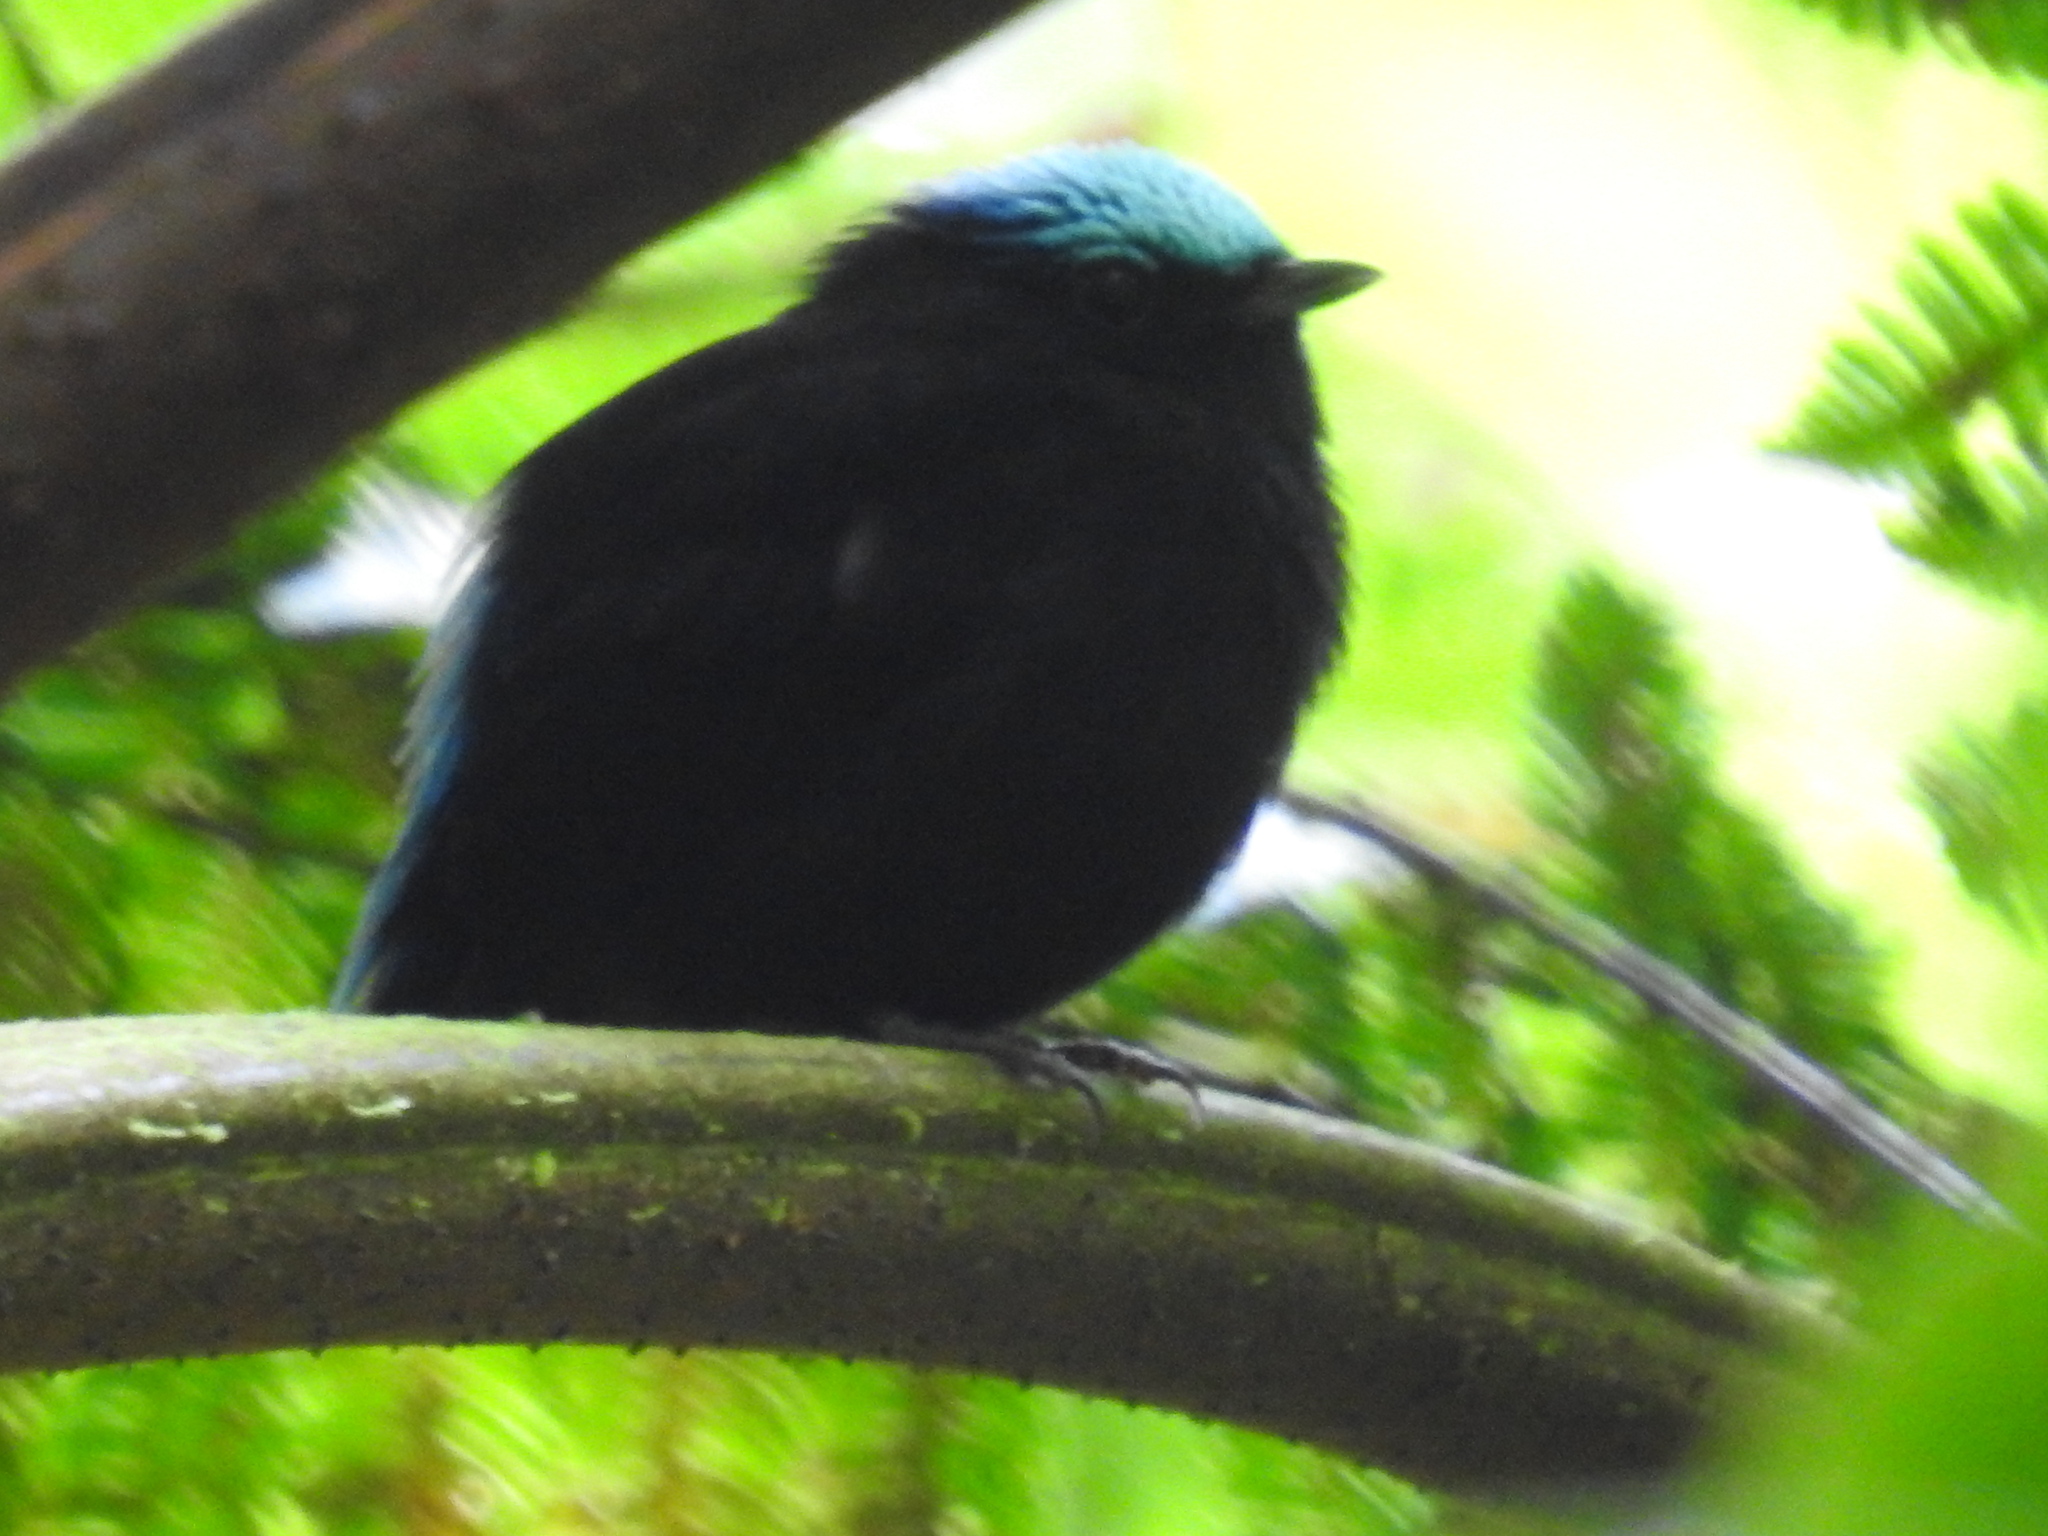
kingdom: Animalia
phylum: Chordata
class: Aves
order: Passeriformes
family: Pipridae
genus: Lepidothrix
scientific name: Lepidothrix coeruleocapilla
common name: Cerulean-capped manakin
